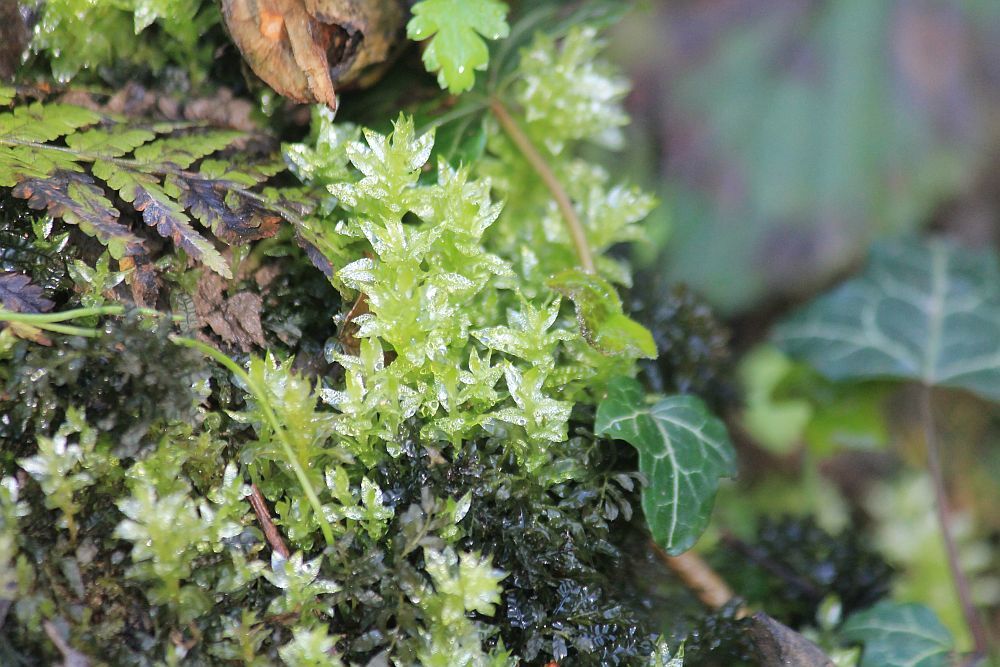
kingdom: Plantae
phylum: Bryophyta
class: Bryopsida
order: Bryales
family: Mniaceae
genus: Plagiomnium
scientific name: Plagiomnium undulatum
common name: Hart's-tongue thyme-moss
